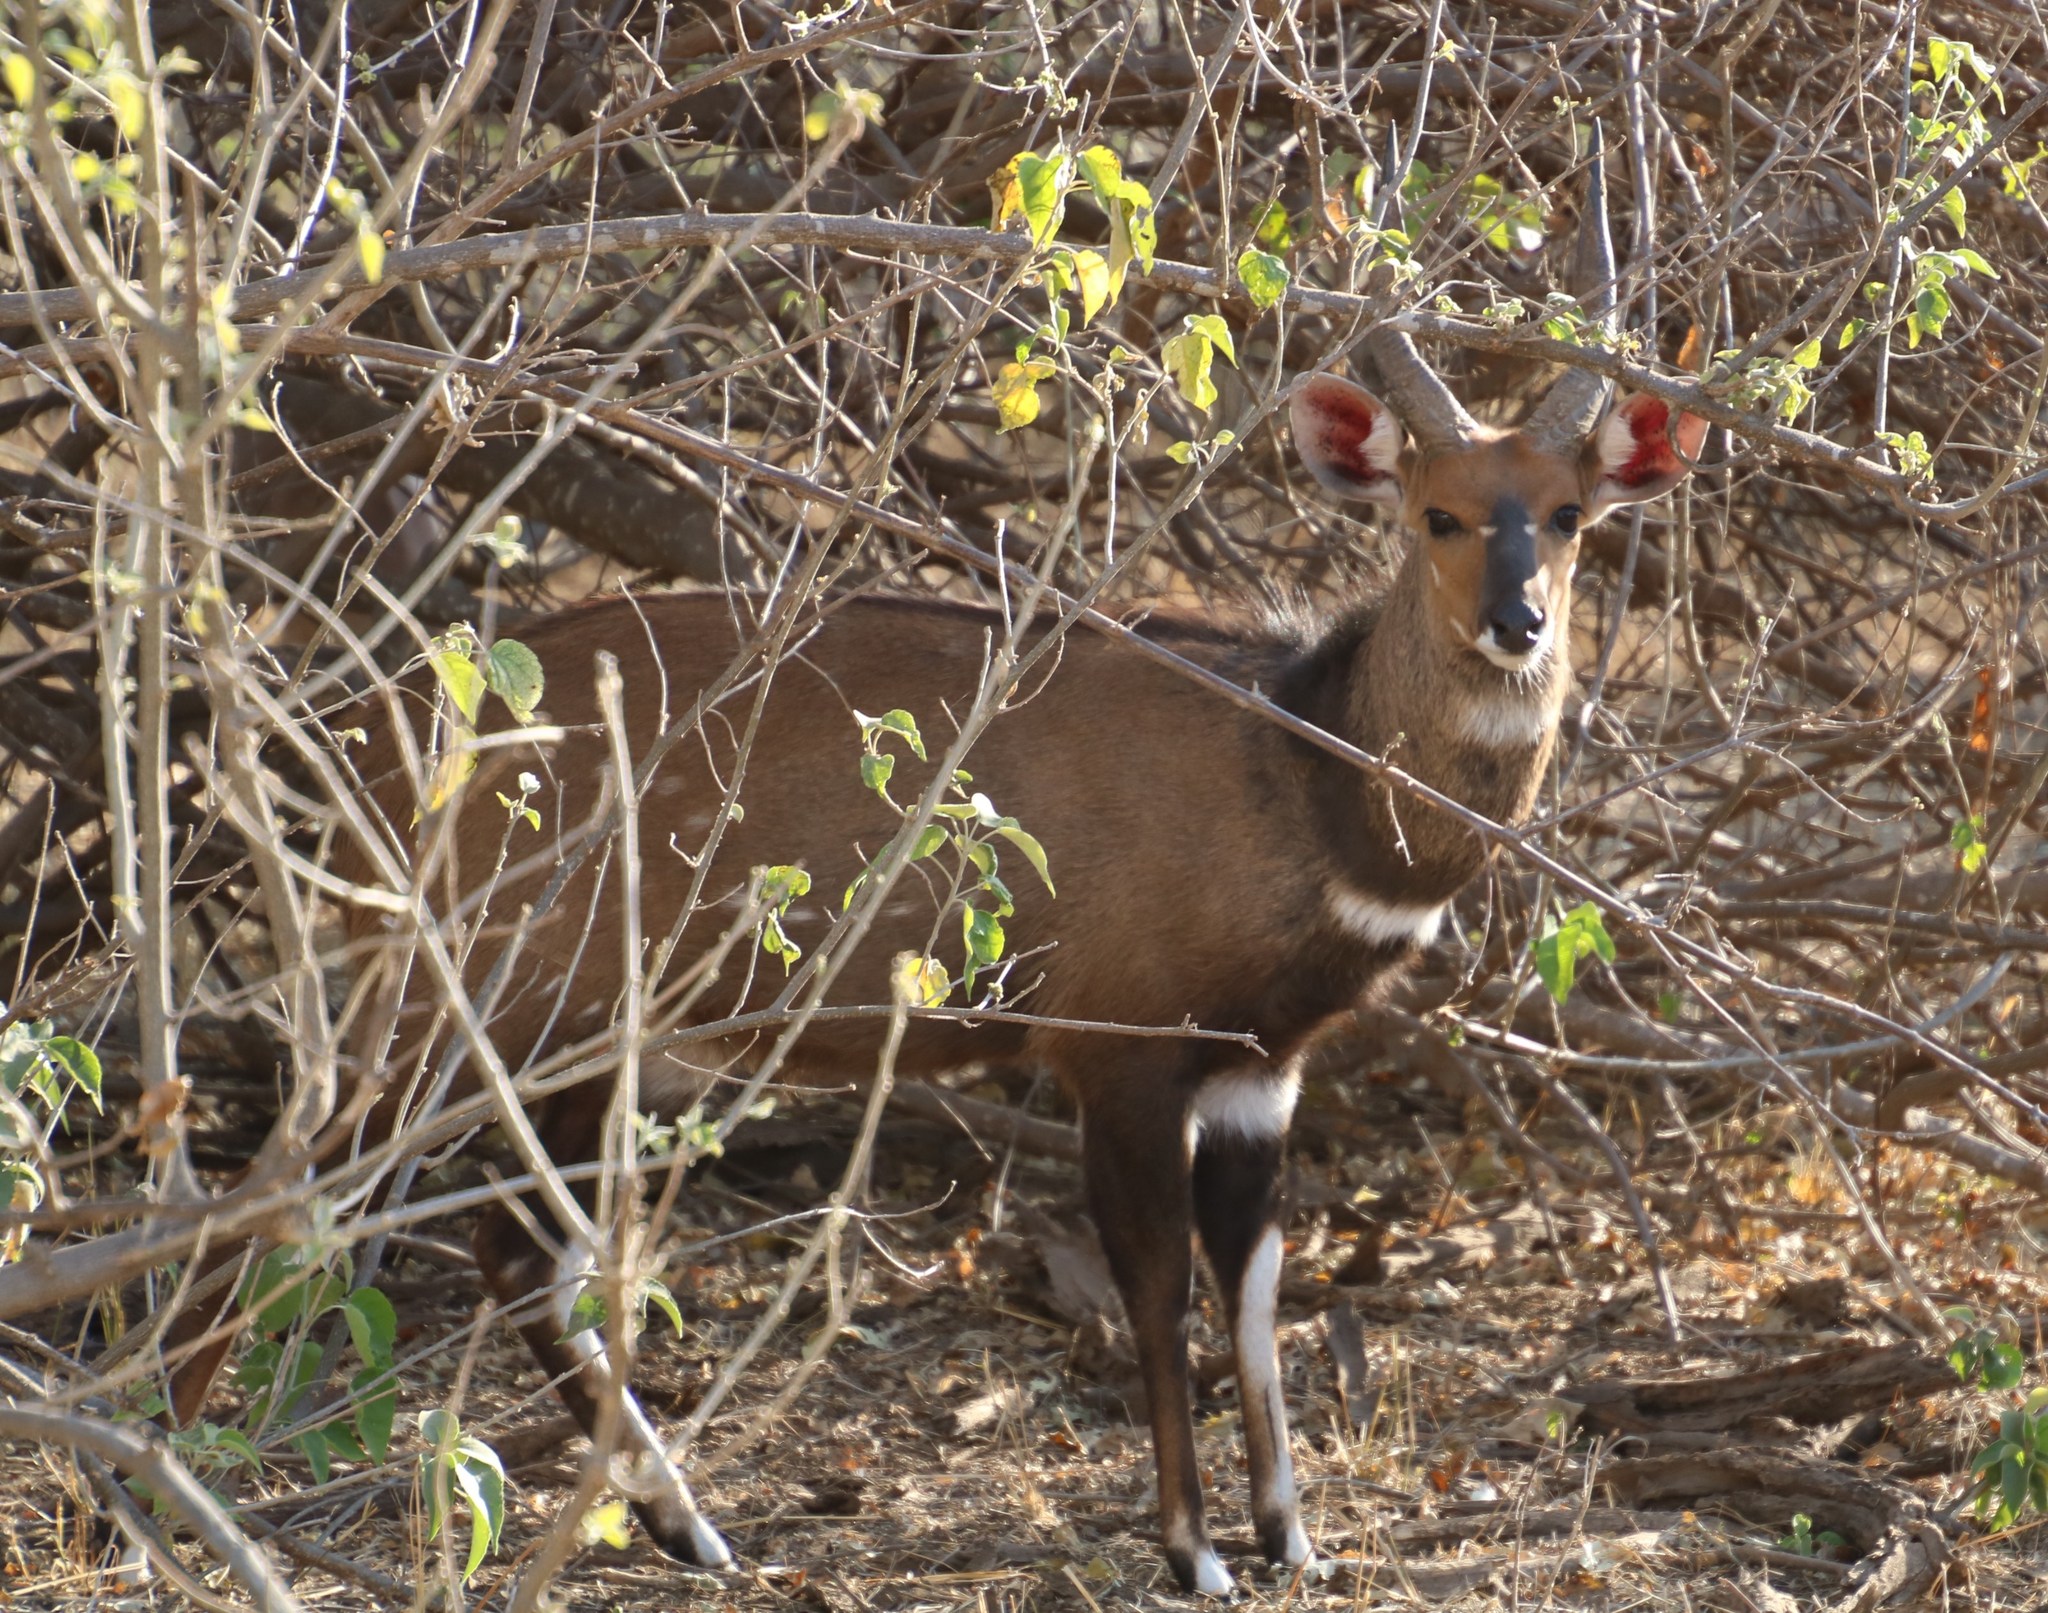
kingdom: Animalia
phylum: Chordata
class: Mammalia
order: Artiodactyla
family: Bovidae
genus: Tragelaphus
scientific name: Tragelaphus scriptus
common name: Bushbuck
